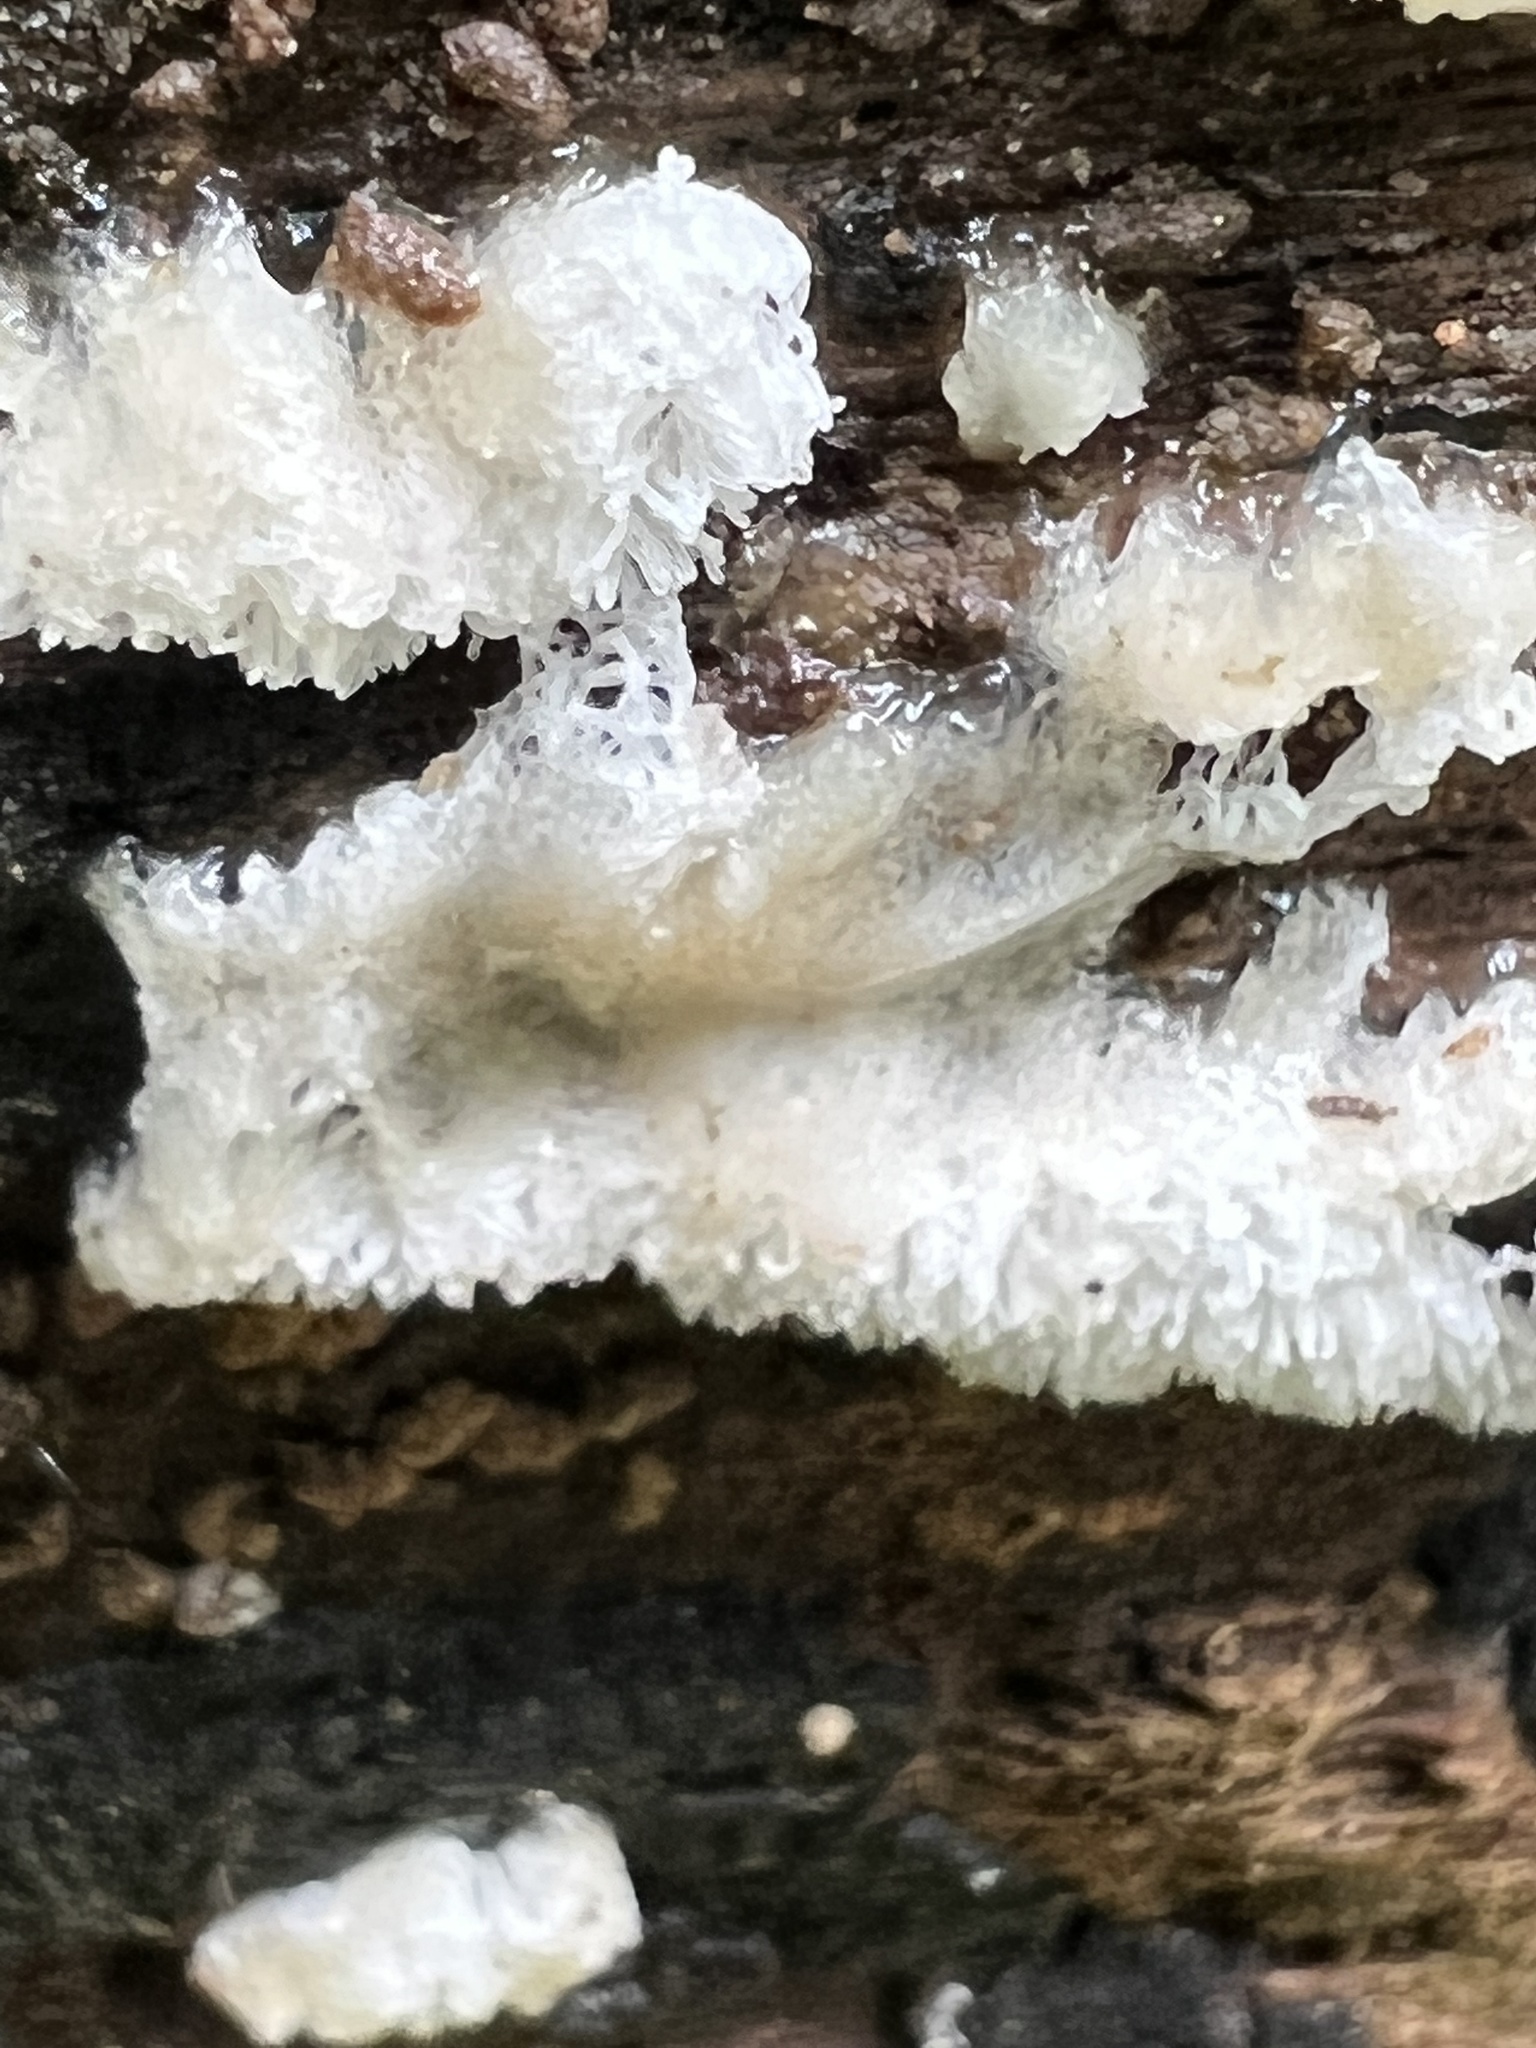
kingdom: Protozoa
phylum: Mycetozoa
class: Protosteliomycetes
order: Ceratiomyxales
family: Ceratiomyxaceae
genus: Ceratiomyxa
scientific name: Ceratiomyxa fruticulosa
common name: Honeycomb coral slime mold
